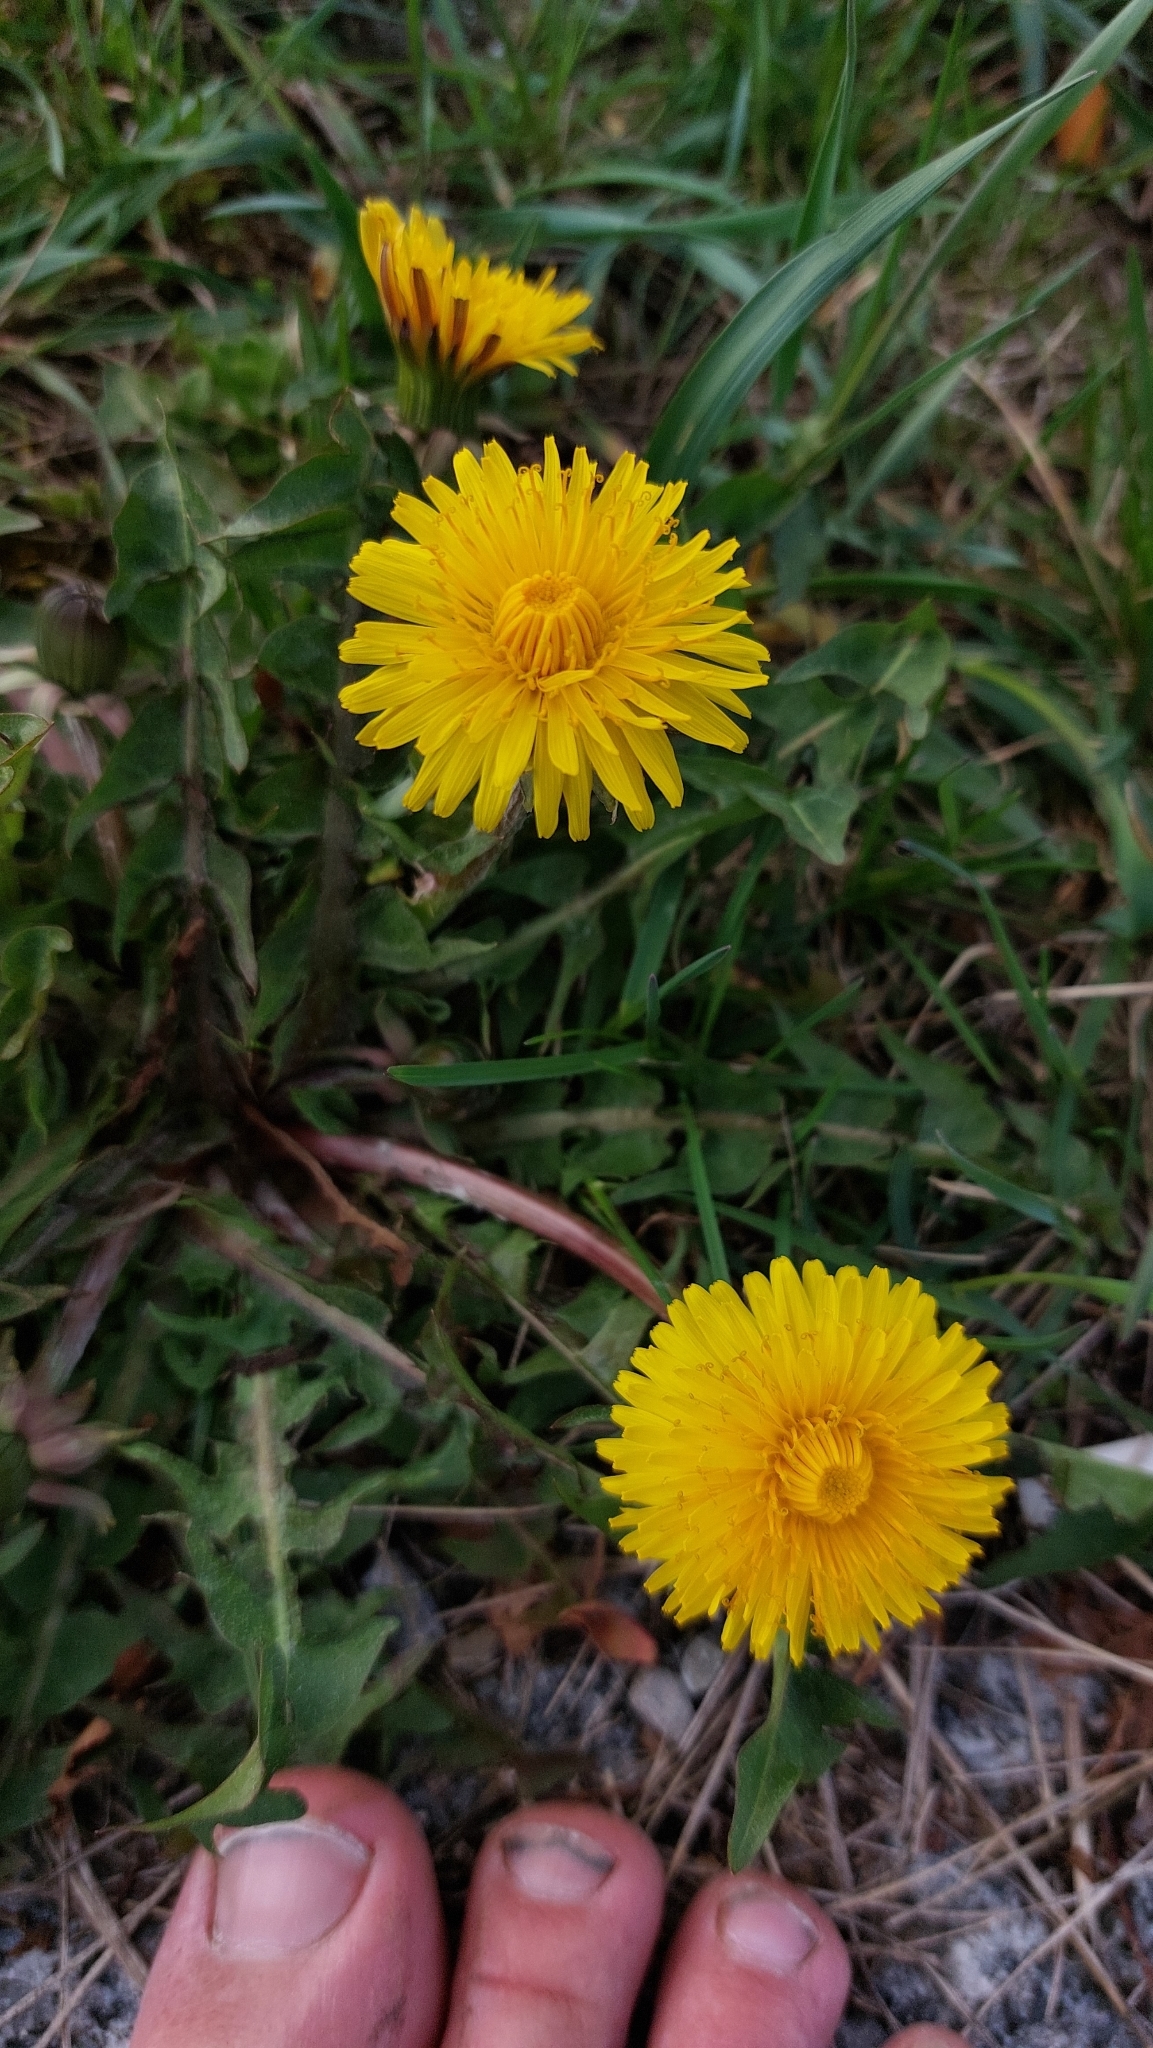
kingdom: Plantae
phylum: Tracheophyta
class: Magnoliopsida
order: Asterales
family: Asteraceae
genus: Taraxacum
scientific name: Taraxacum officinale
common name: Common dandelion
